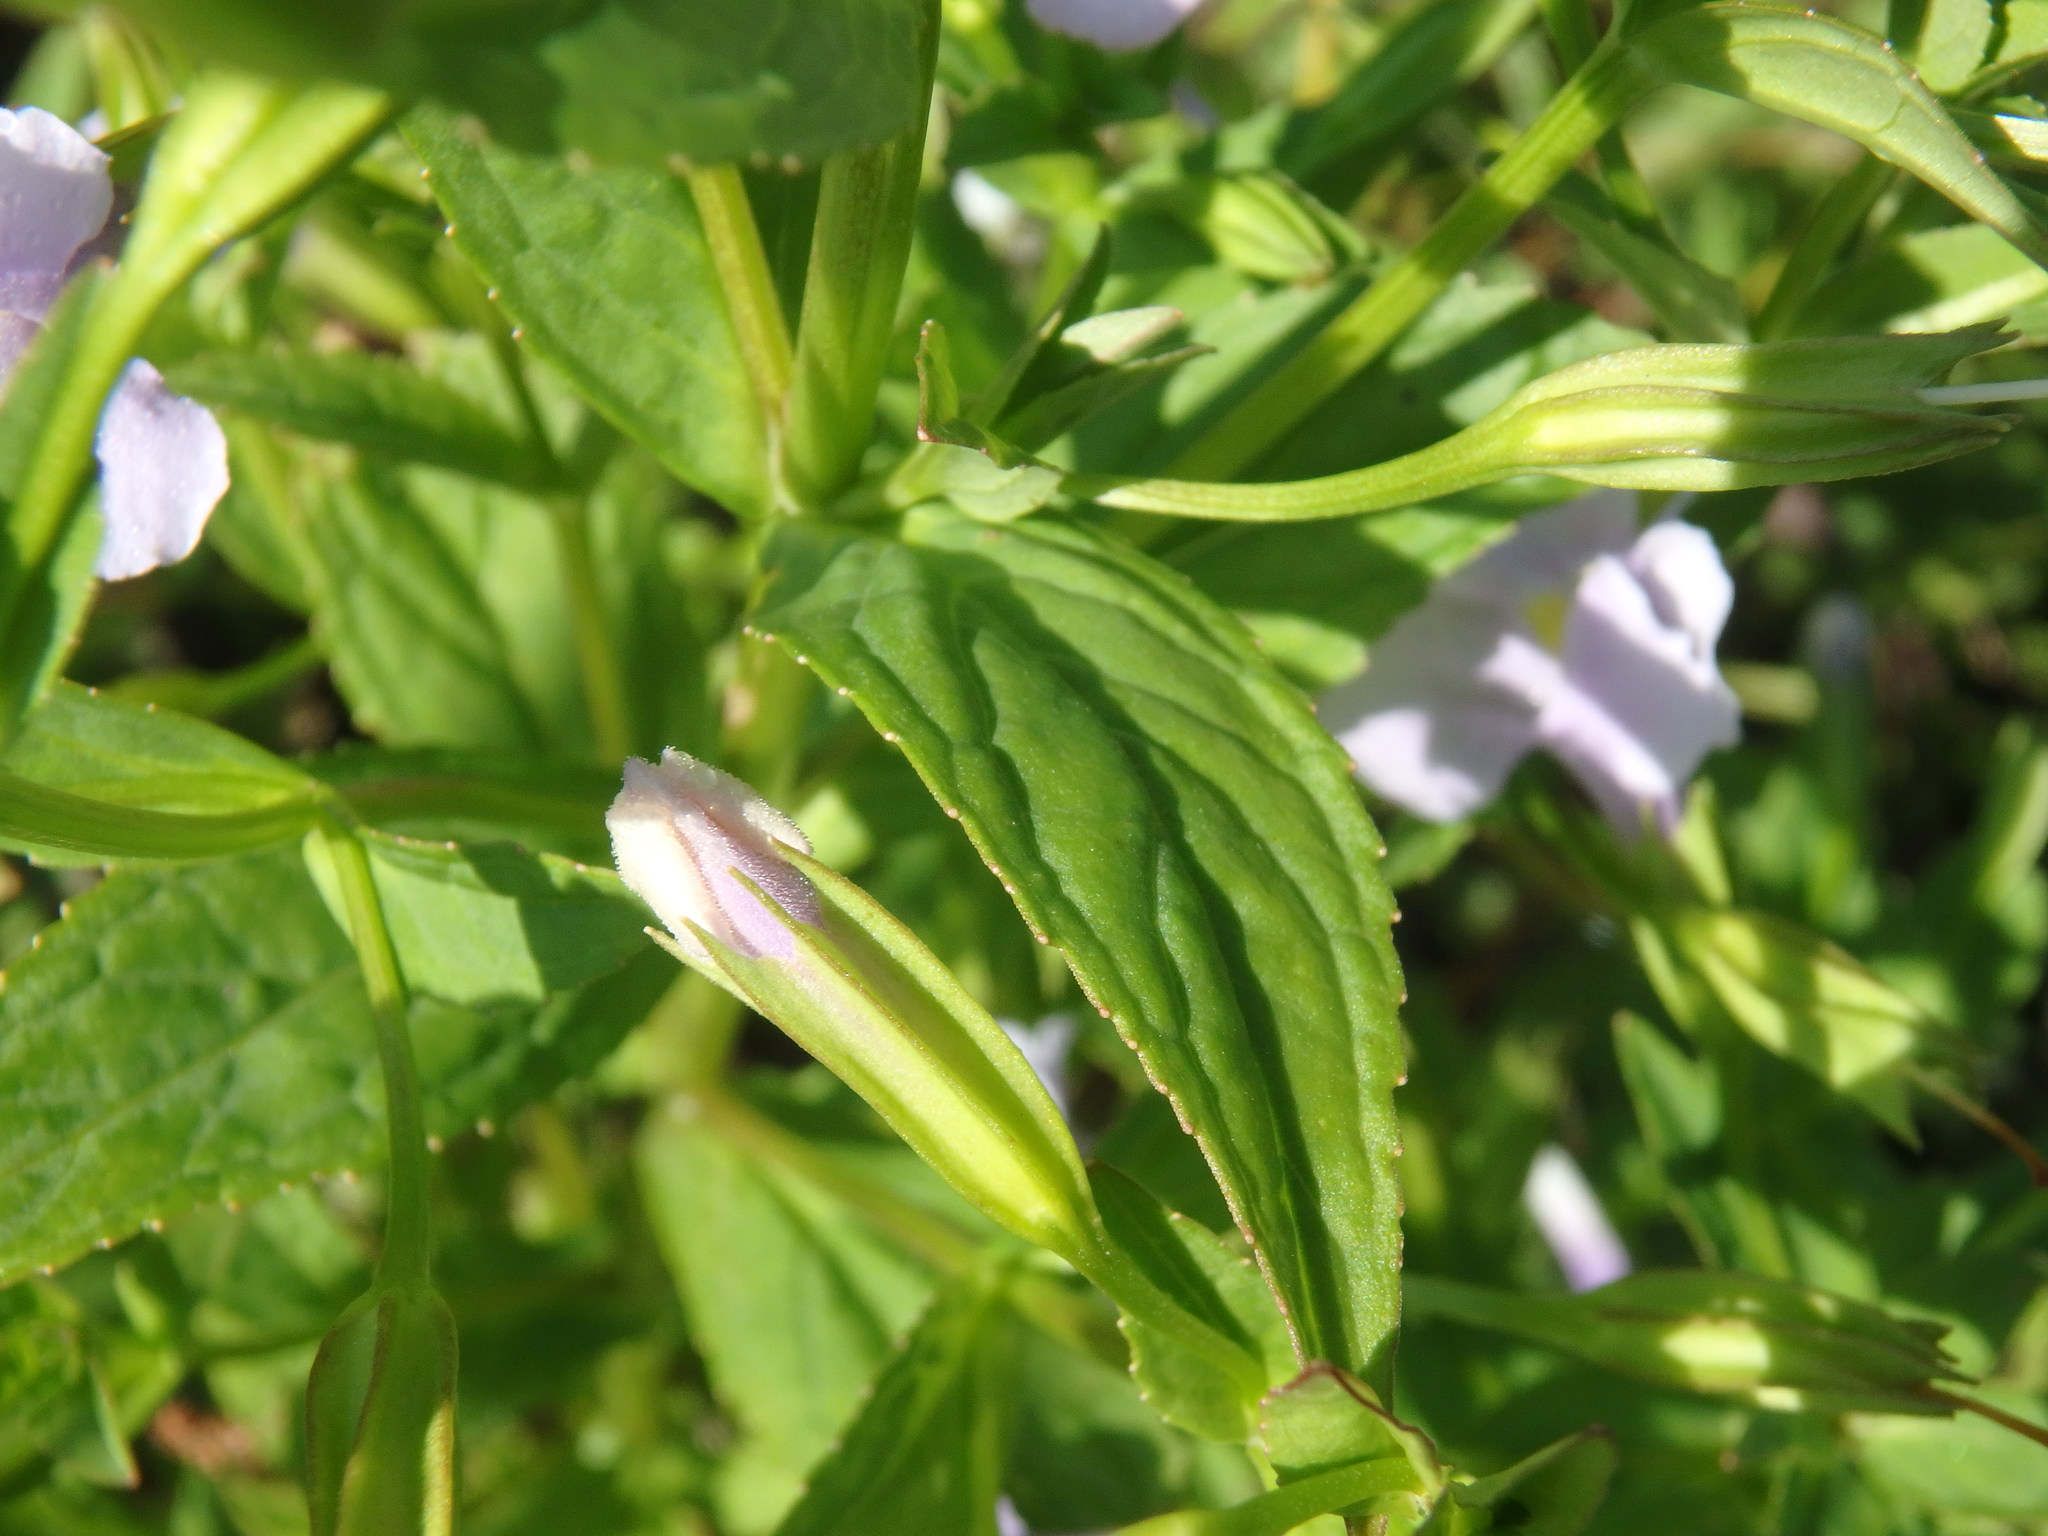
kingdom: Plantae
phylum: Tracheophyta
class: Magnoliopsida
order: Lamiales
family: Phrymaceae
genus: Mimulus
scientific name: Mimulus ringens
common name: Allegheny monkeyflower
